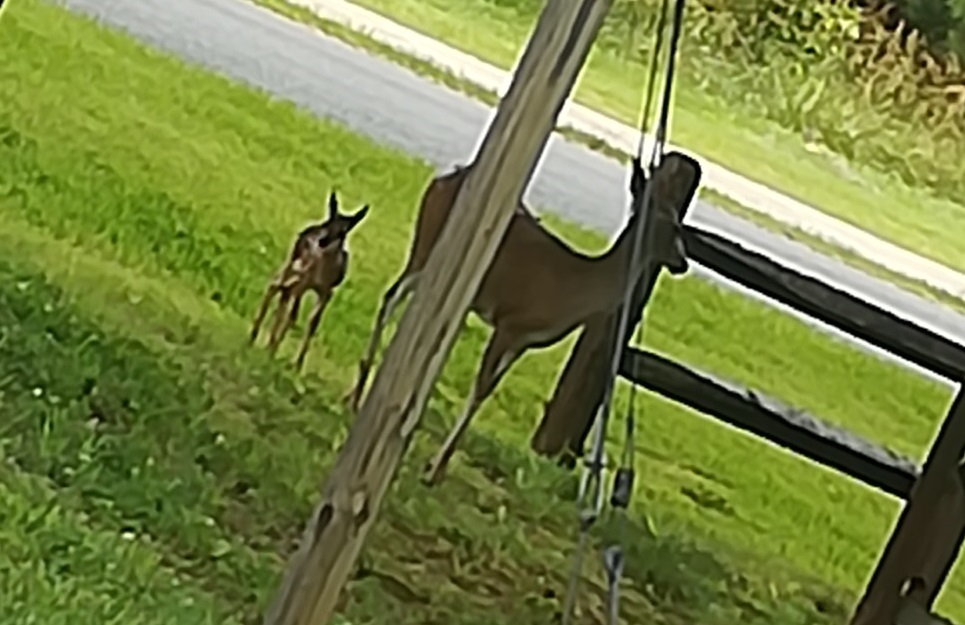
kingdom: Animalia
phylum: Chordata
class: Mammalia
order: Artiodactyla
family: Cervidae
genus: Odocoileus
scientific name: Odocoileus virginianus
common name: White-tailed deer
